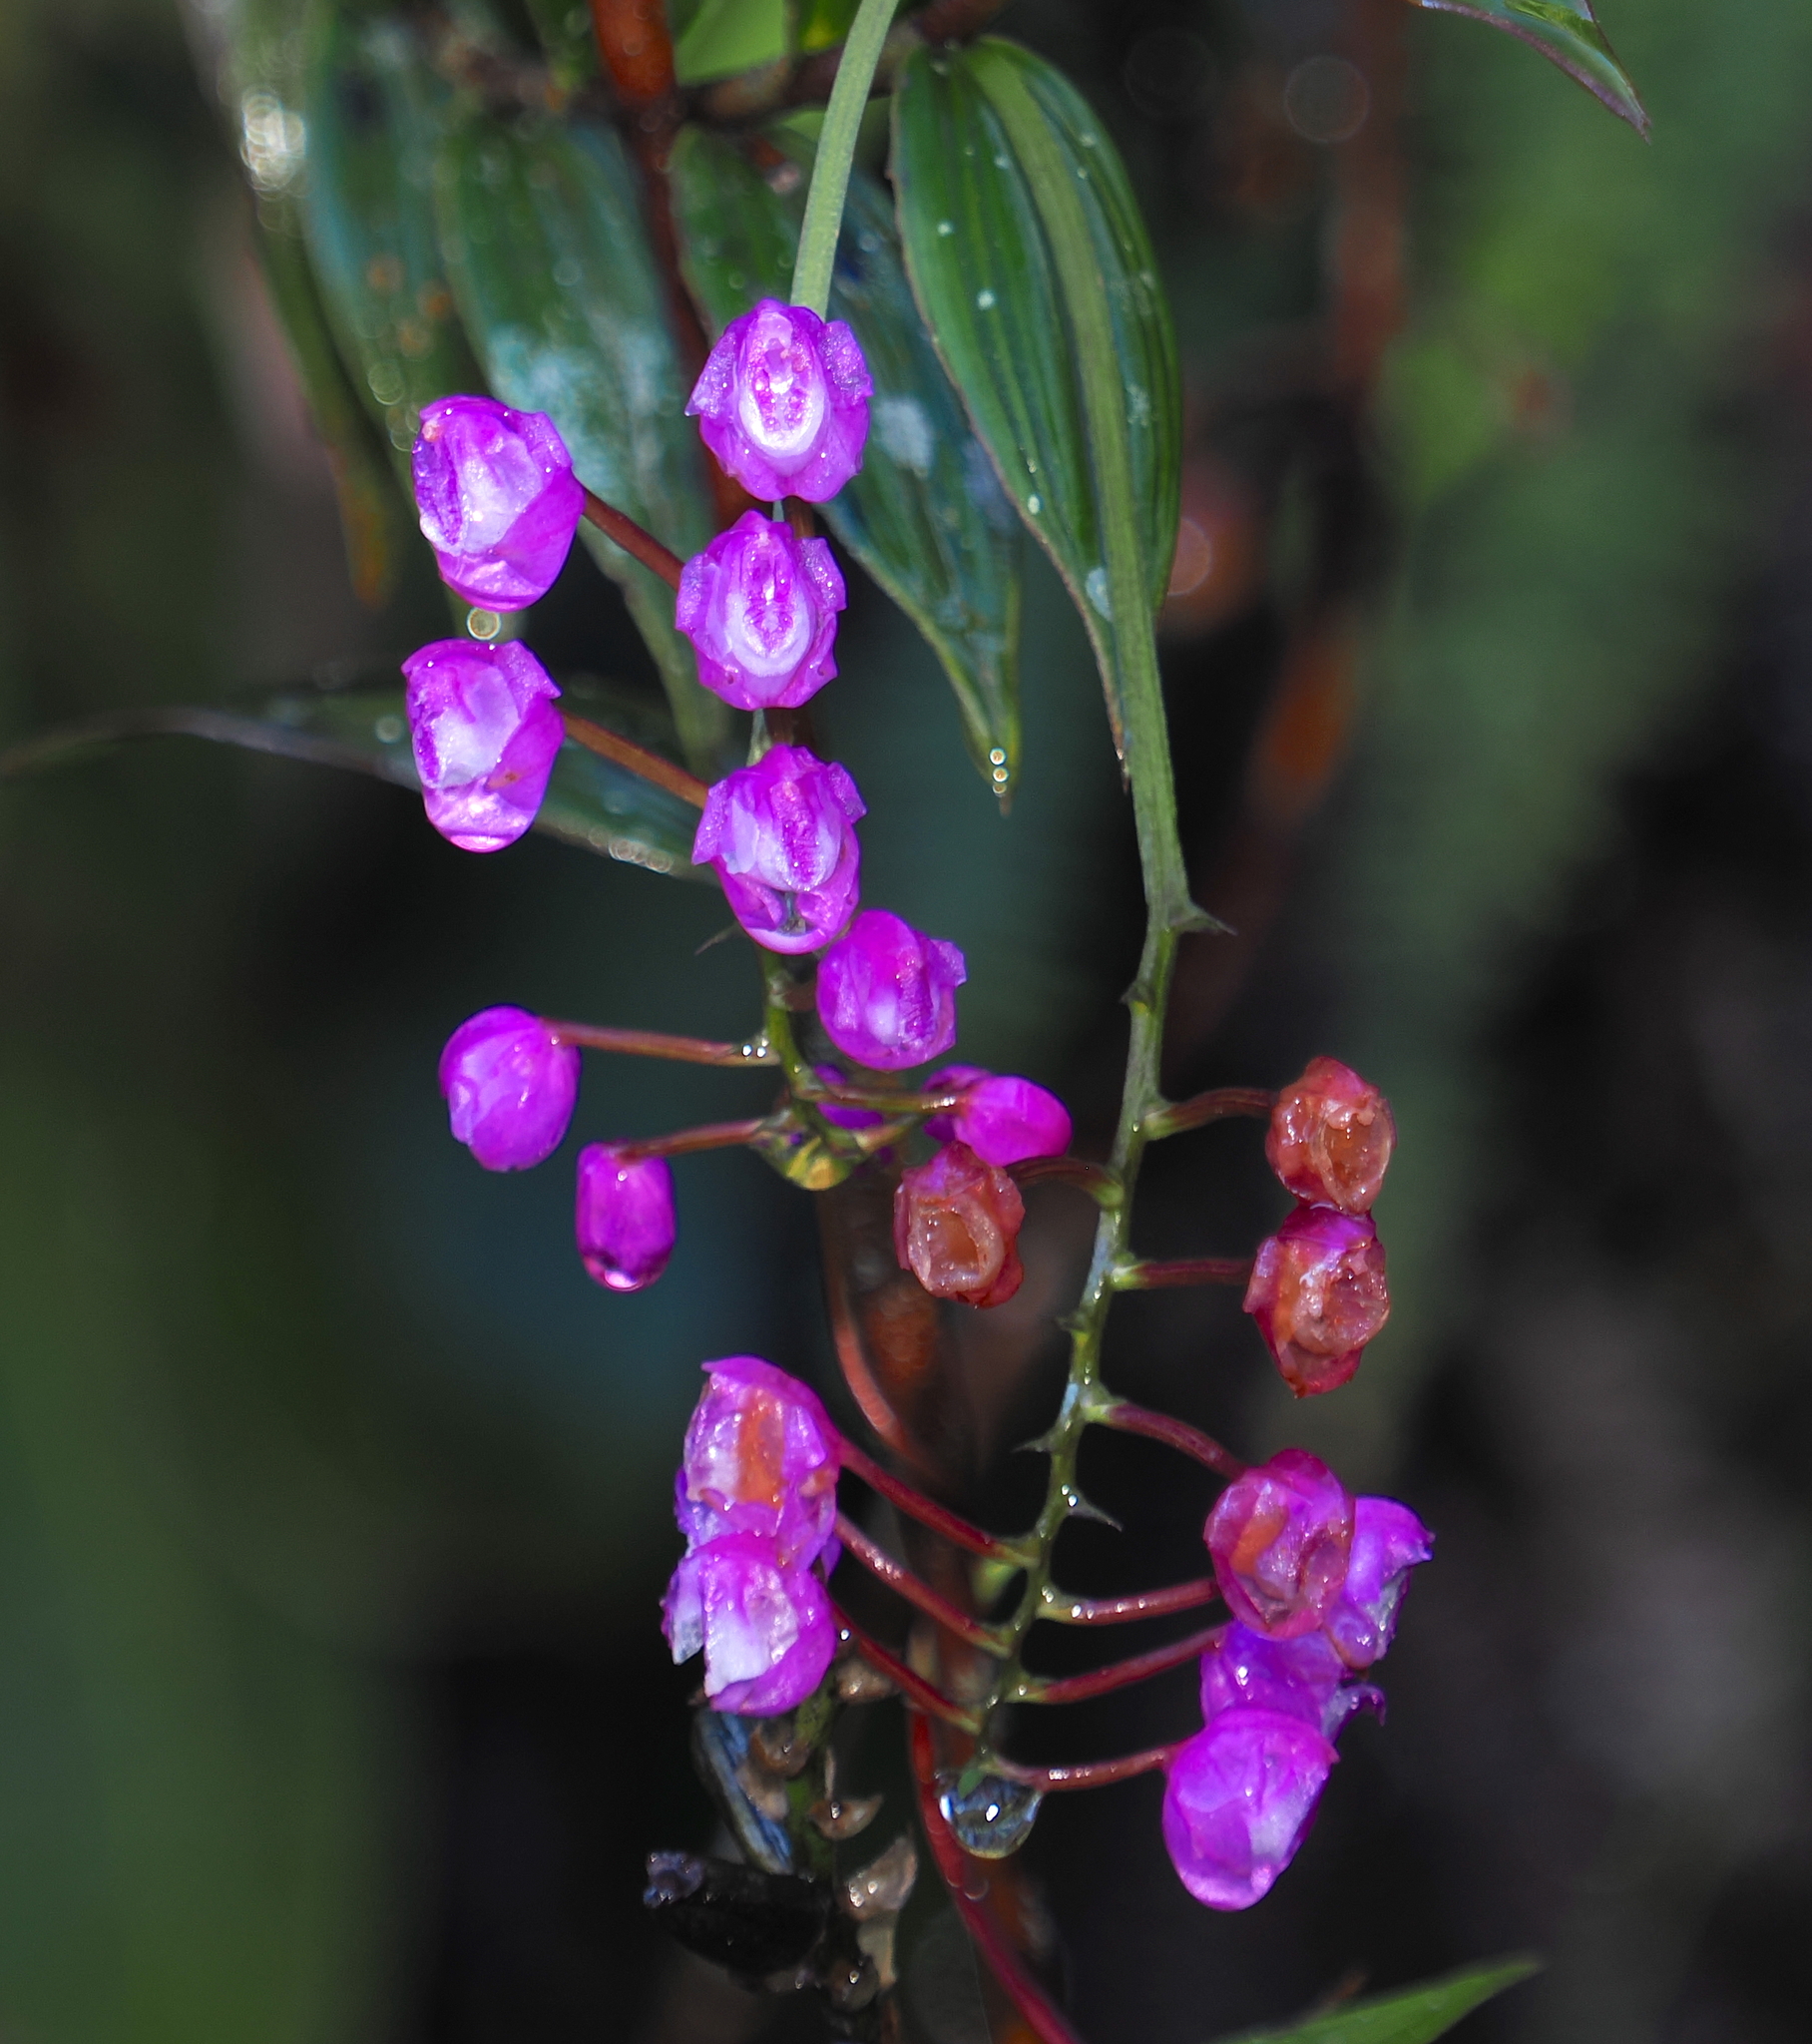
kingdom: Plantae
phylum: Tracheophyta
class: Liliopsida
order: Asparagales
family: Orchidaceae
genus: Sertifera
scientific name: Sertifera purpurea
